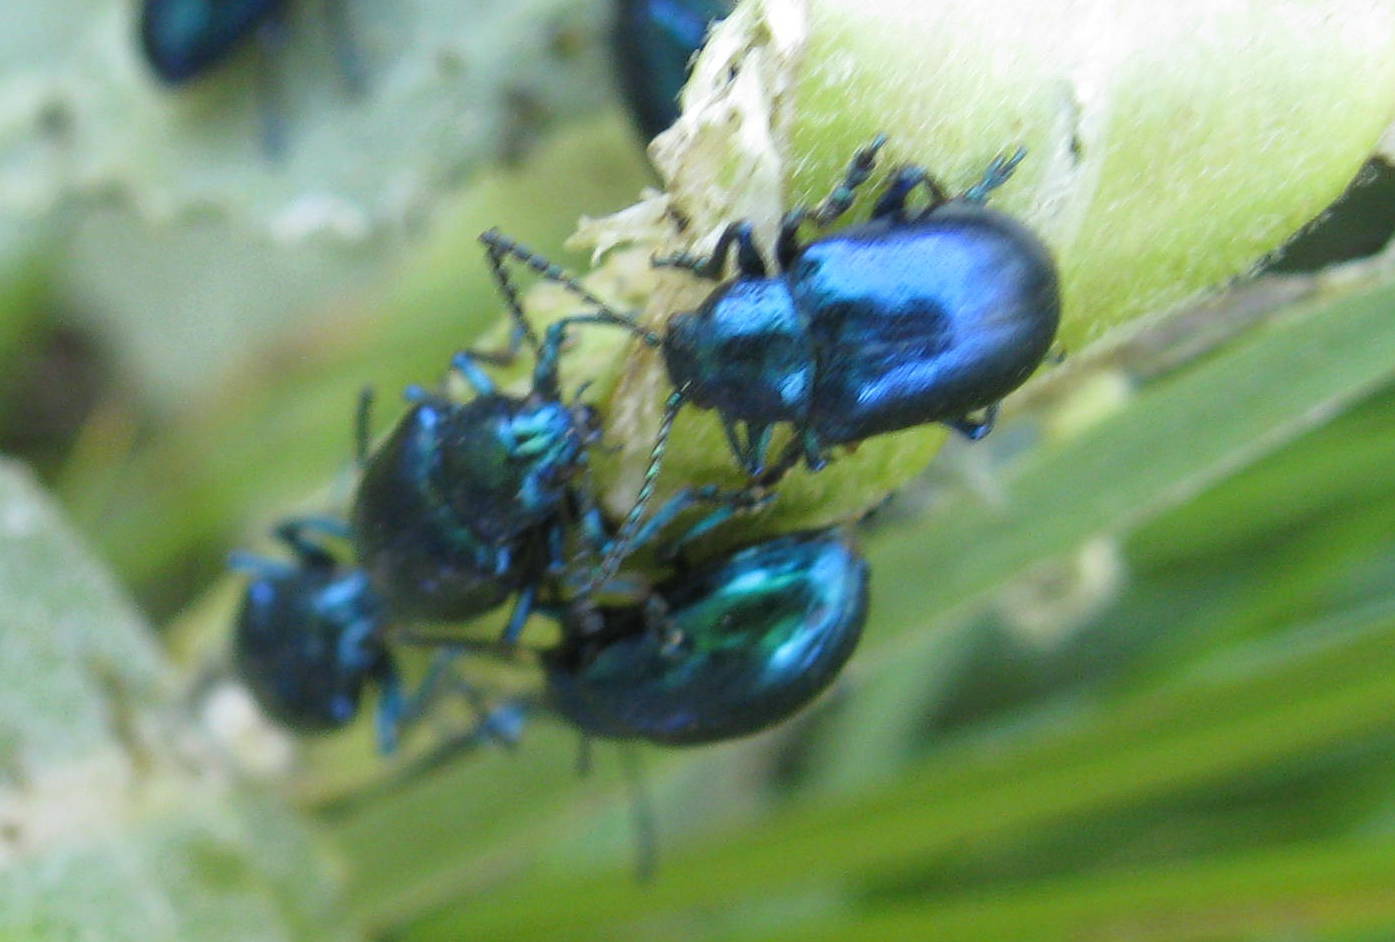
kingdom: Animalia
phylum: Arthropoda
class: Insecta
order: Coleoptera
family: Chrysomelidae
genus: Chrysochus
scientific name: Chrysochus cobaltinus
